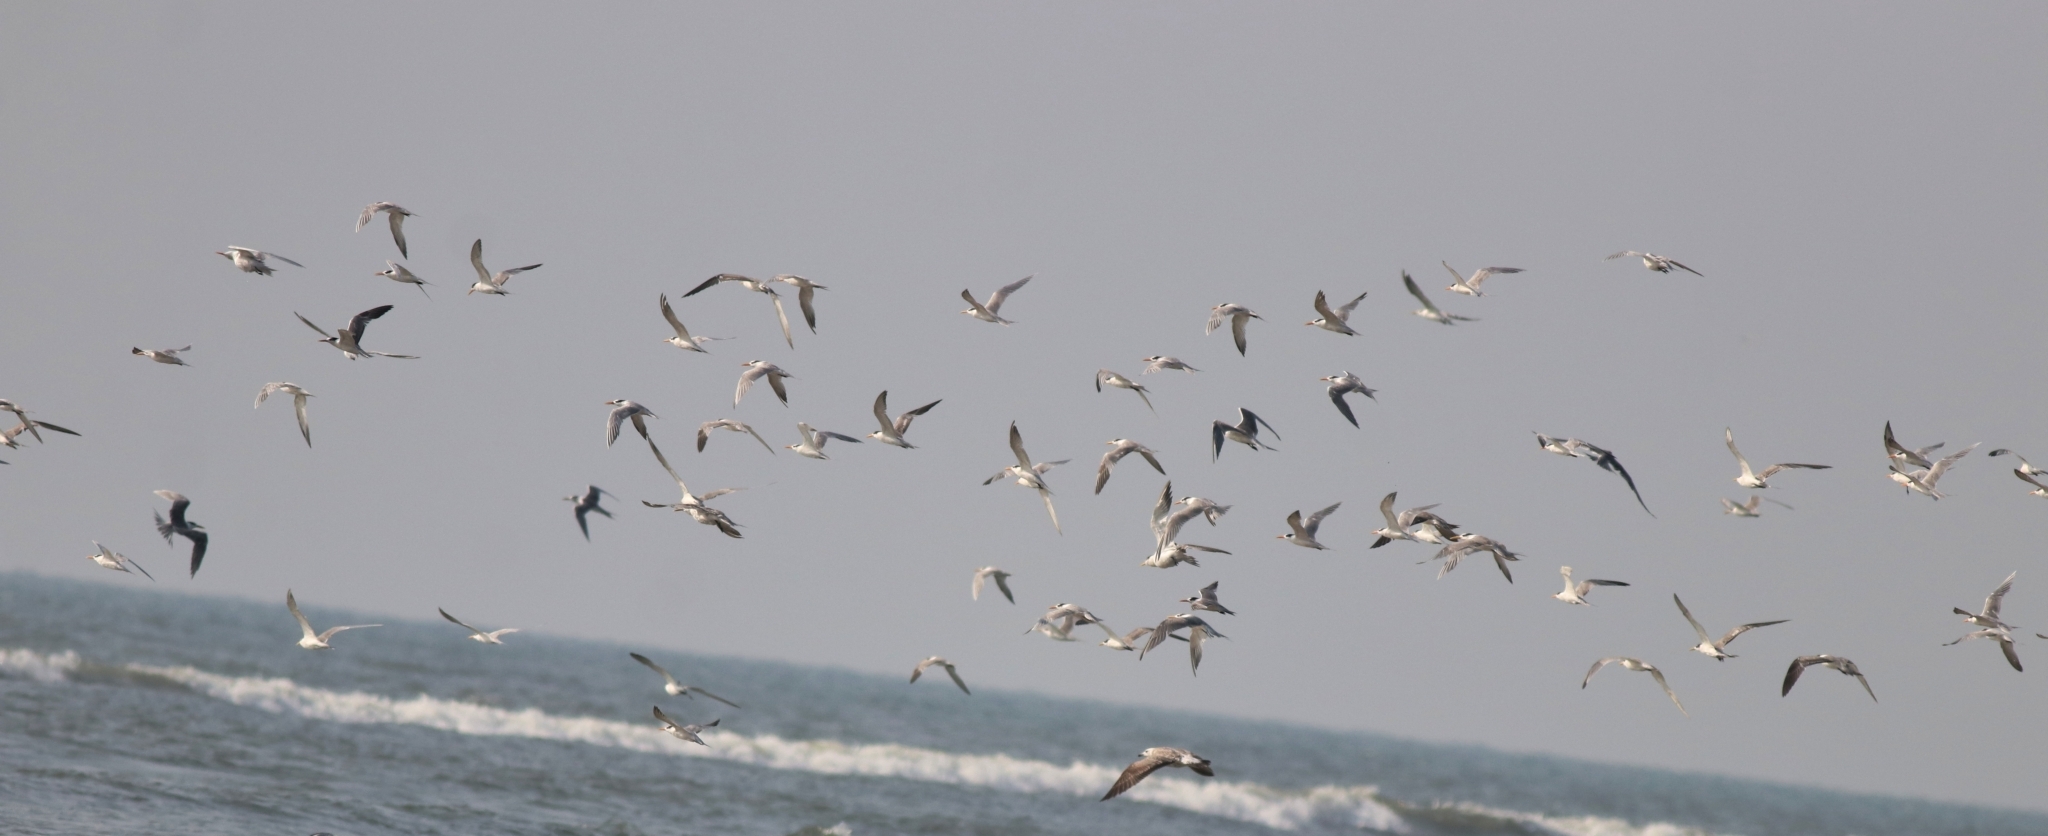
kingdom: Animalia
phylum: Chordata
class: Aves
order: Charadriiformes
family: Laridae
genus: Thalasseus
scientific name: Thalasseus bengalensis
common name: Lesser crested tern
